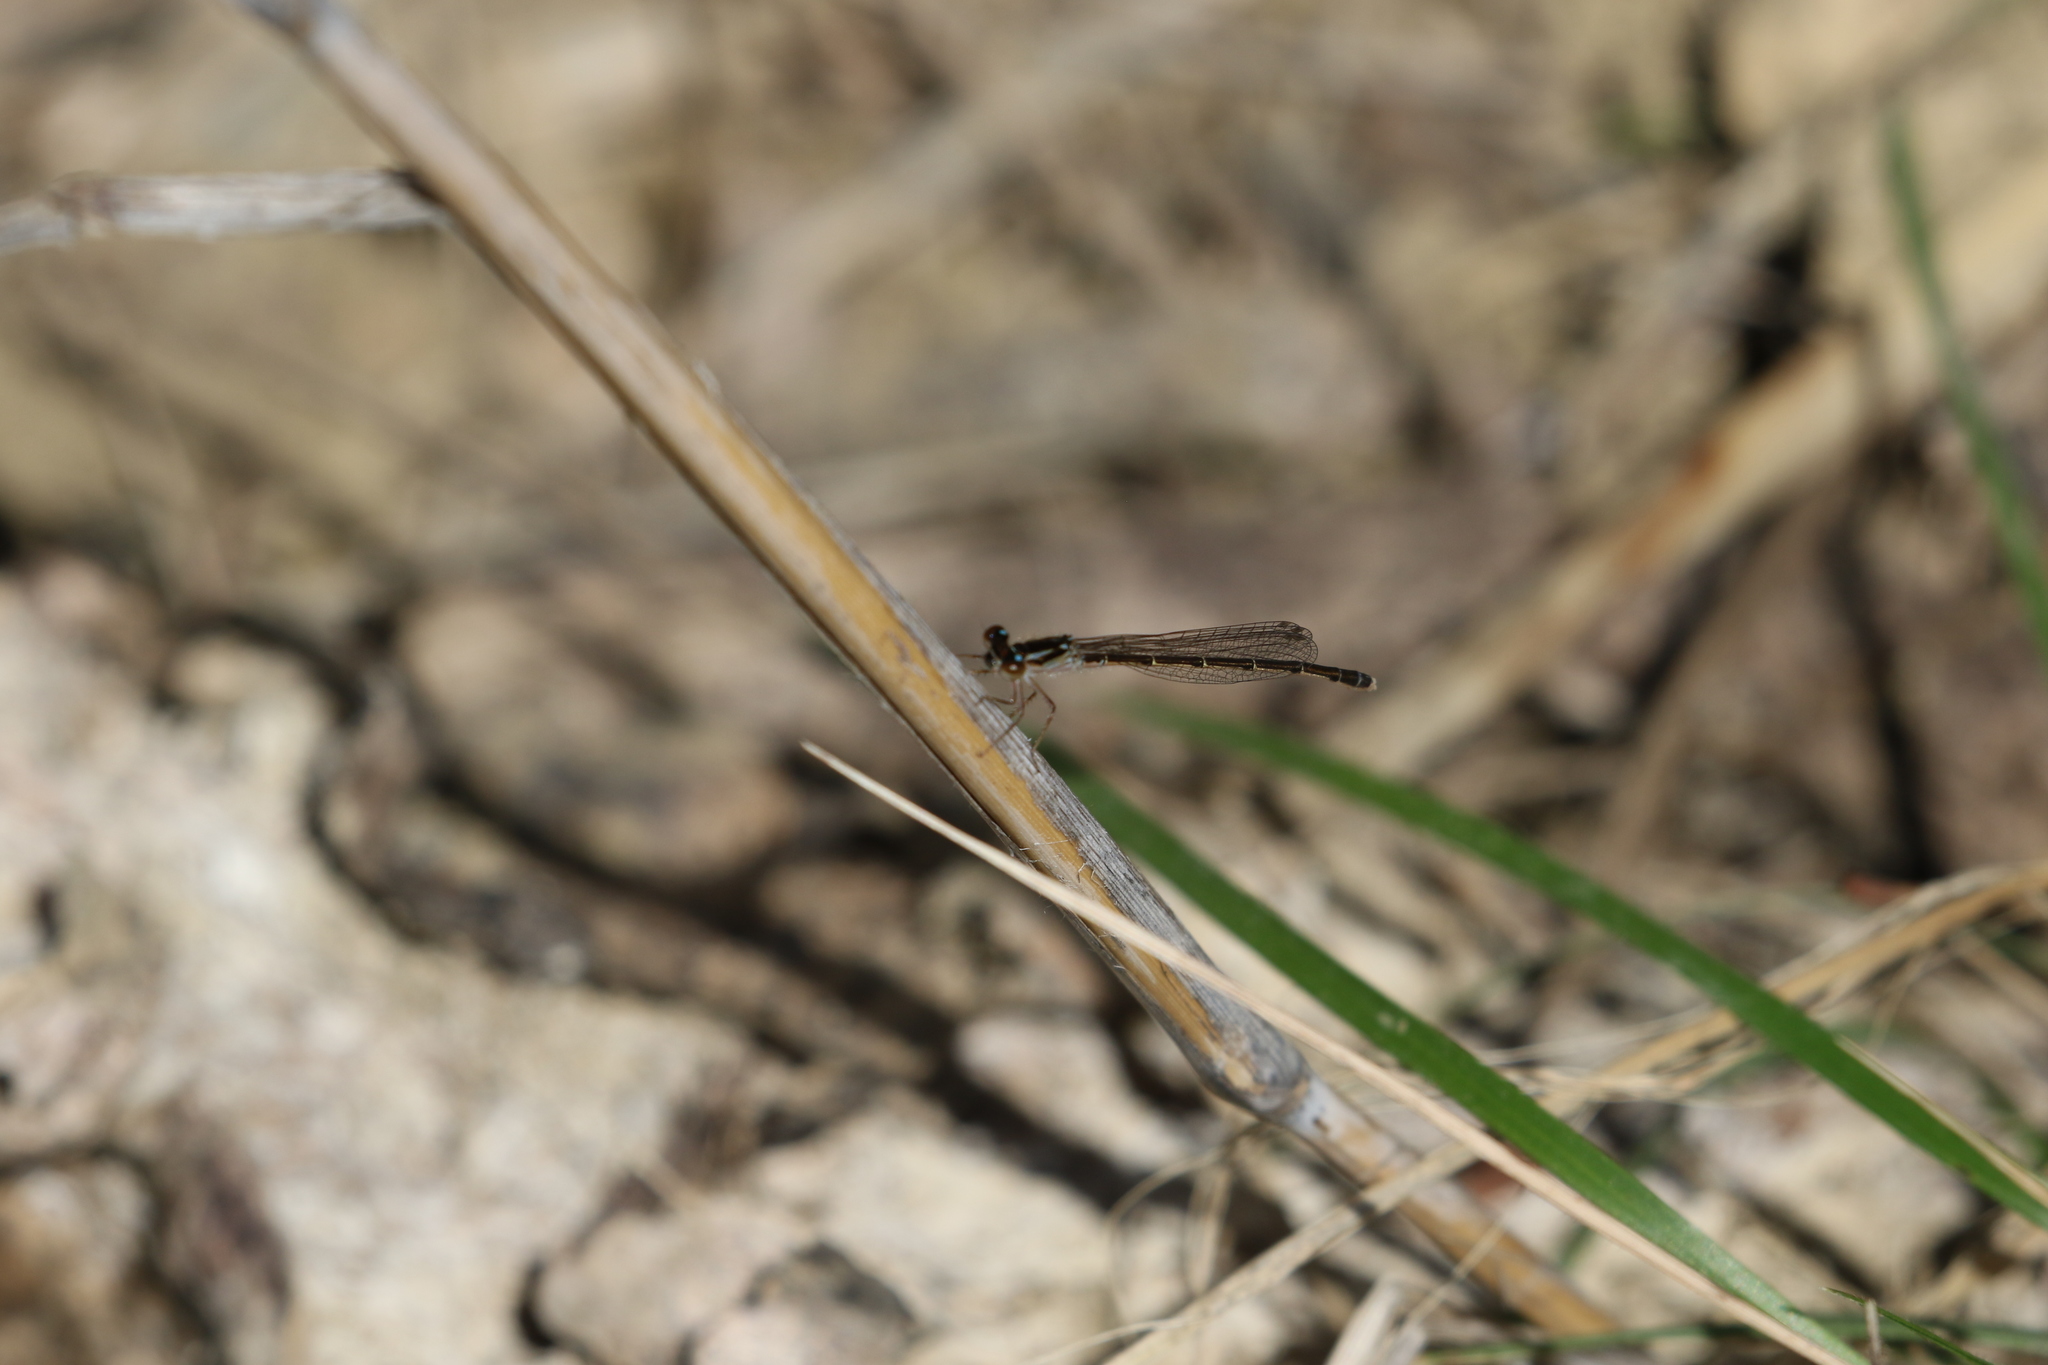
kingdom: Animalia
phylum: Arthropoda
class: Insecta
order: Odonata
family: Coenagrionidae
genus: Ischnura
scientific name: Ischnura posita
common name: Fragile forktail
